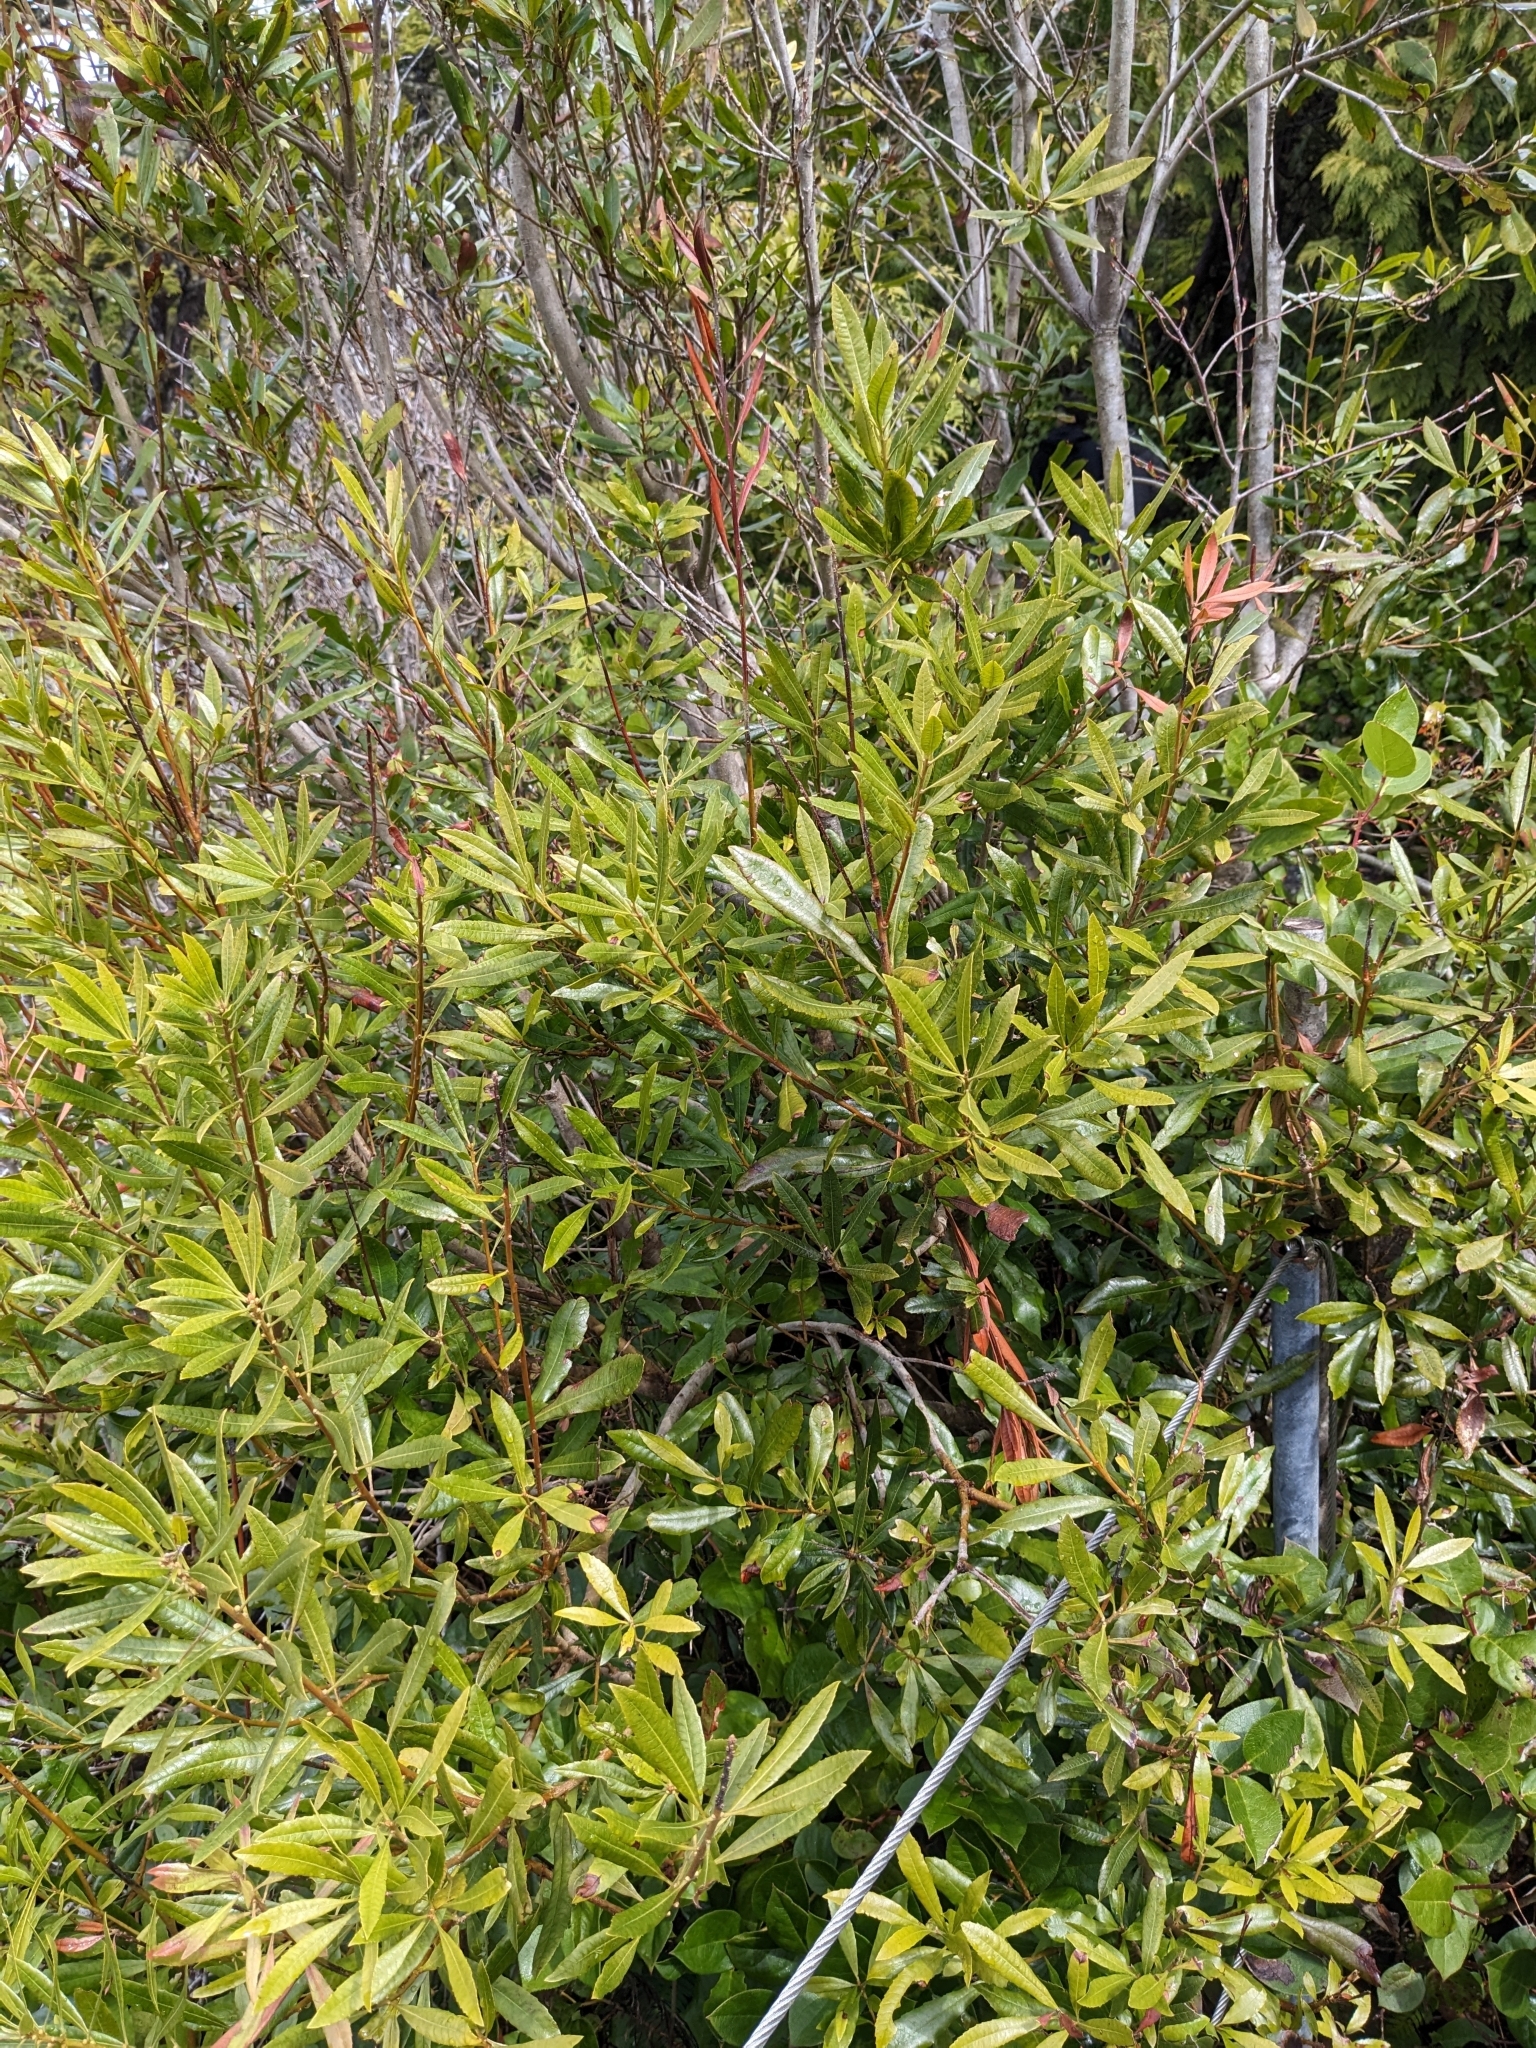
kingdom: Plantae
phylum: Tracheophyta
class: Magnoliopsida
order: Fagales
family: Myricaceae
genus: Morella
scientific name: Morella californica
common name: California wax-myrtle
